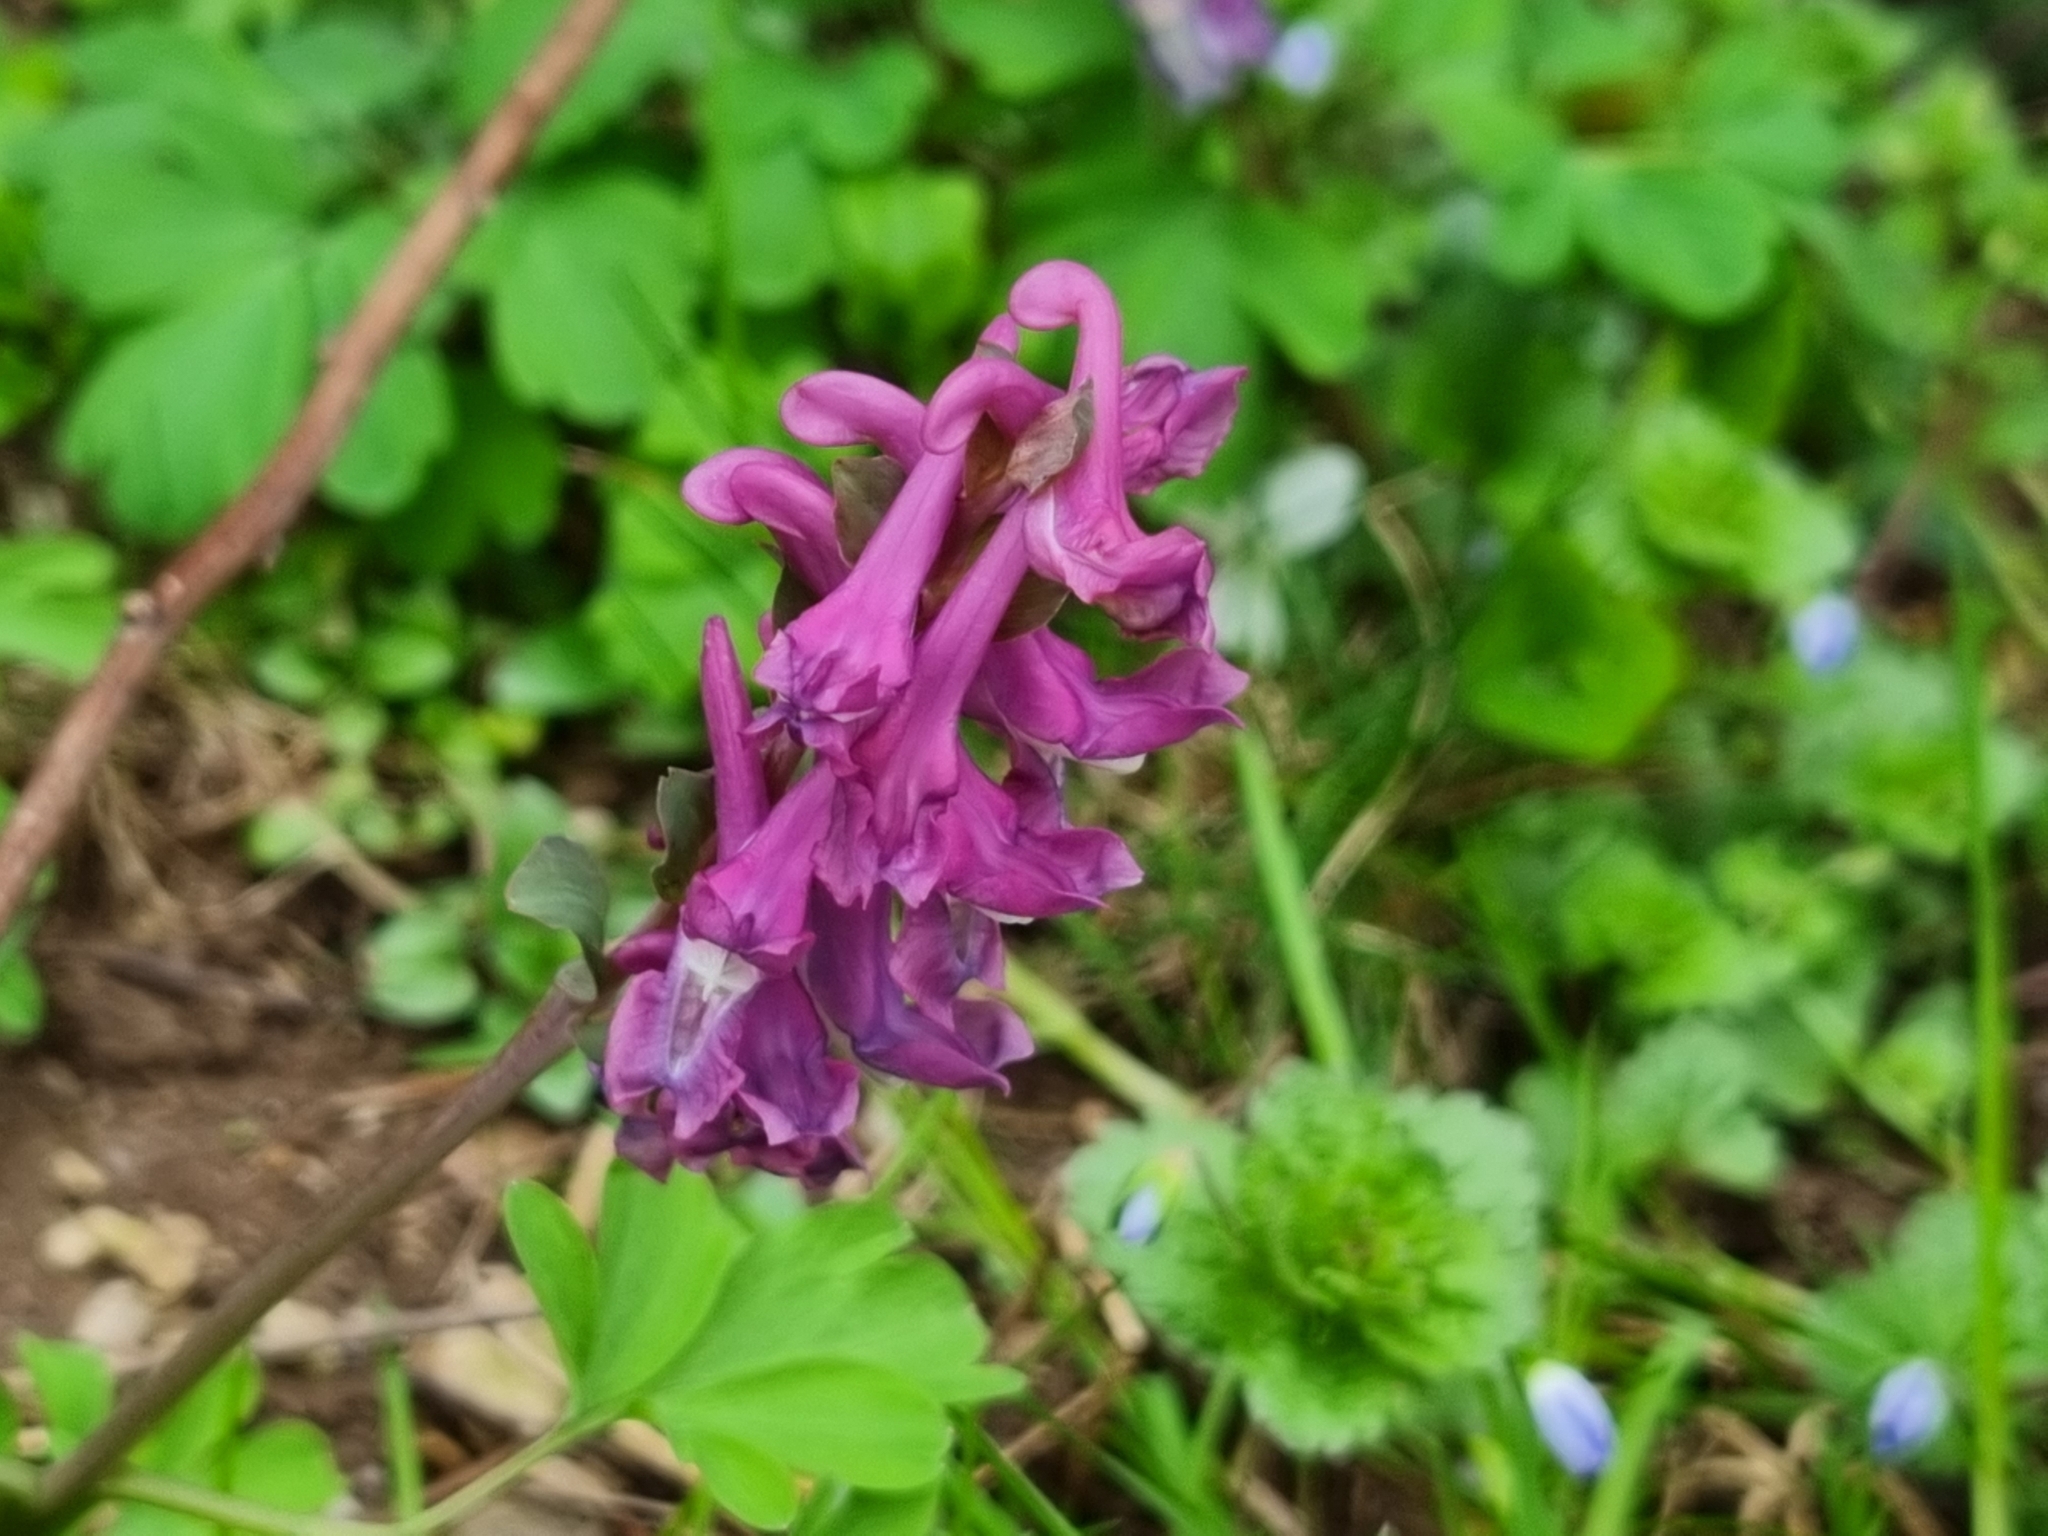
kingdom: Plantae
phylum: Tracheophyta
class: Magnoliopsida
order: Ranunculales
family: Papaveraceae
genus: Corydalis
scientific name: Corydalis cava
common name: Hollowroot
